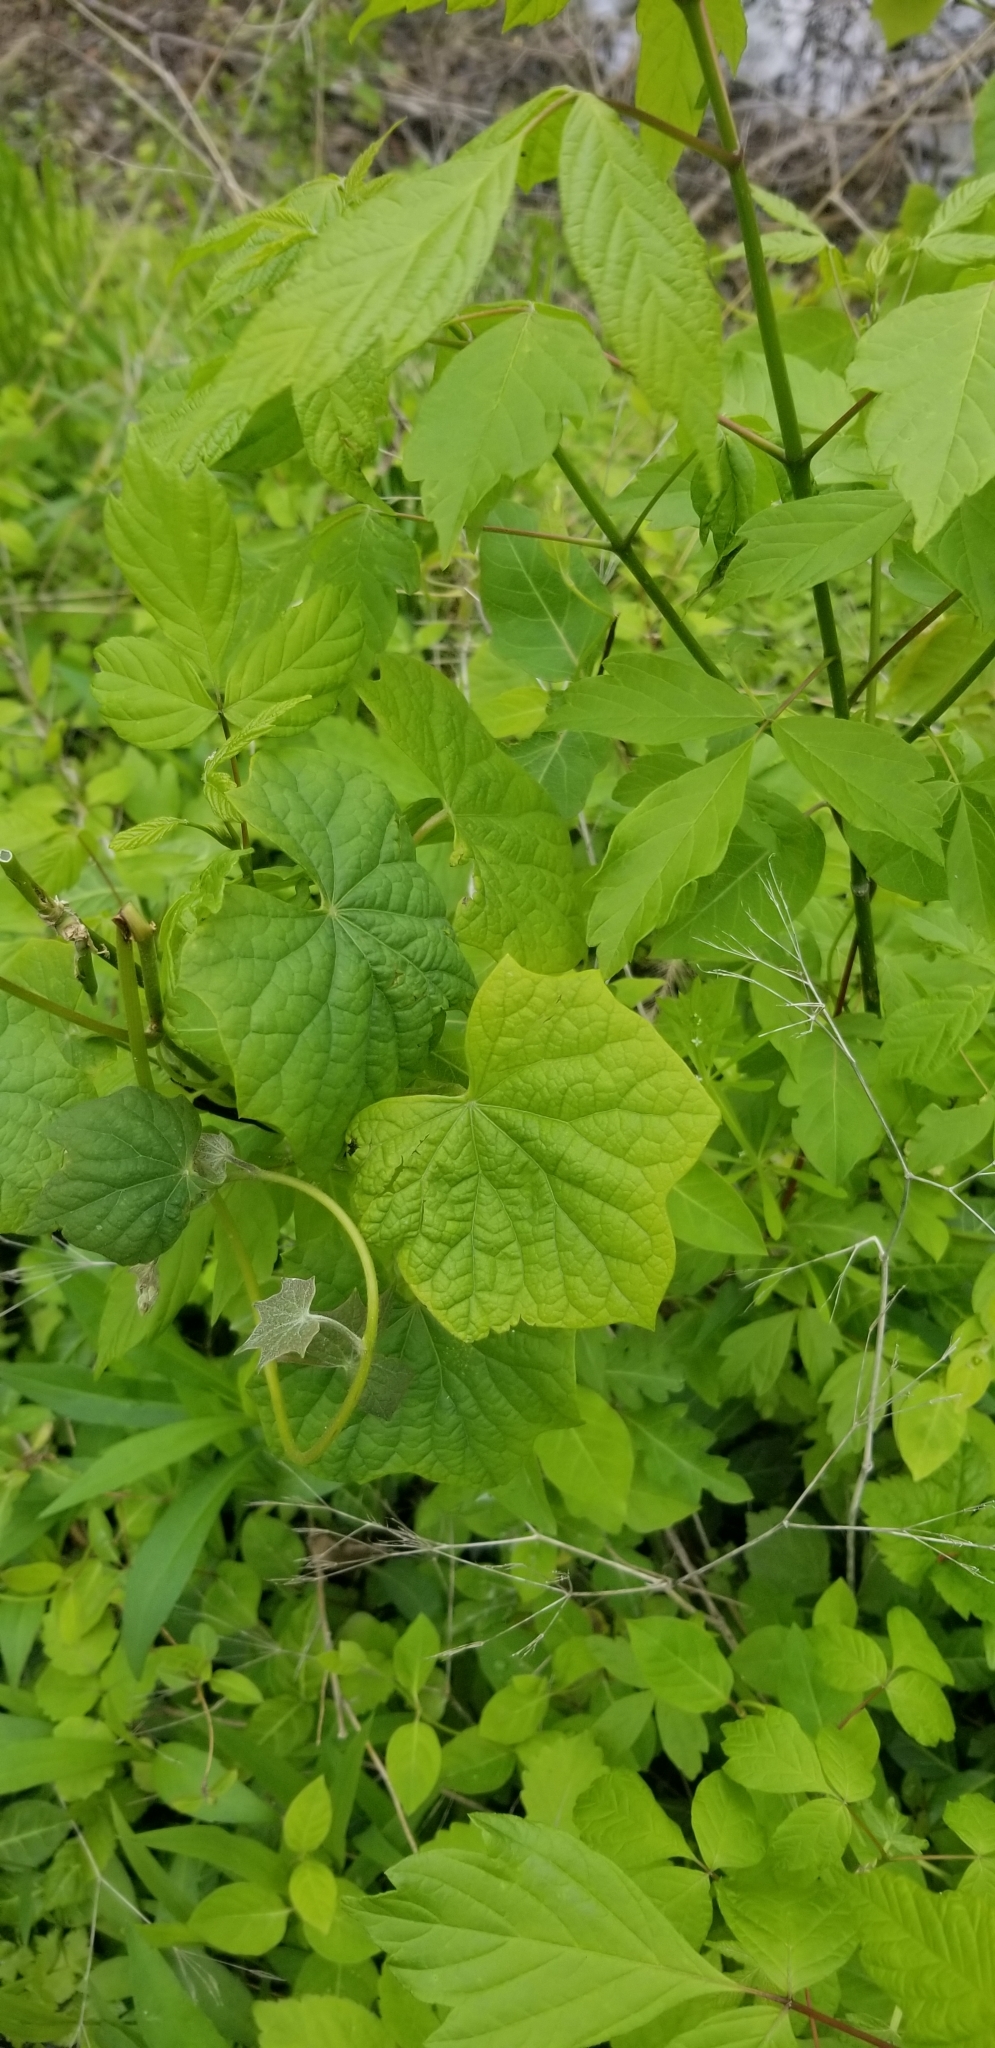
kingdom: Plantae
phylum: Tracheophyta
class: Magnoliopsida
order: Ranunculales
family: Menispermaceae
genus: Menispermum
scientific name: Menispermum canadense
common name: Moonseed
